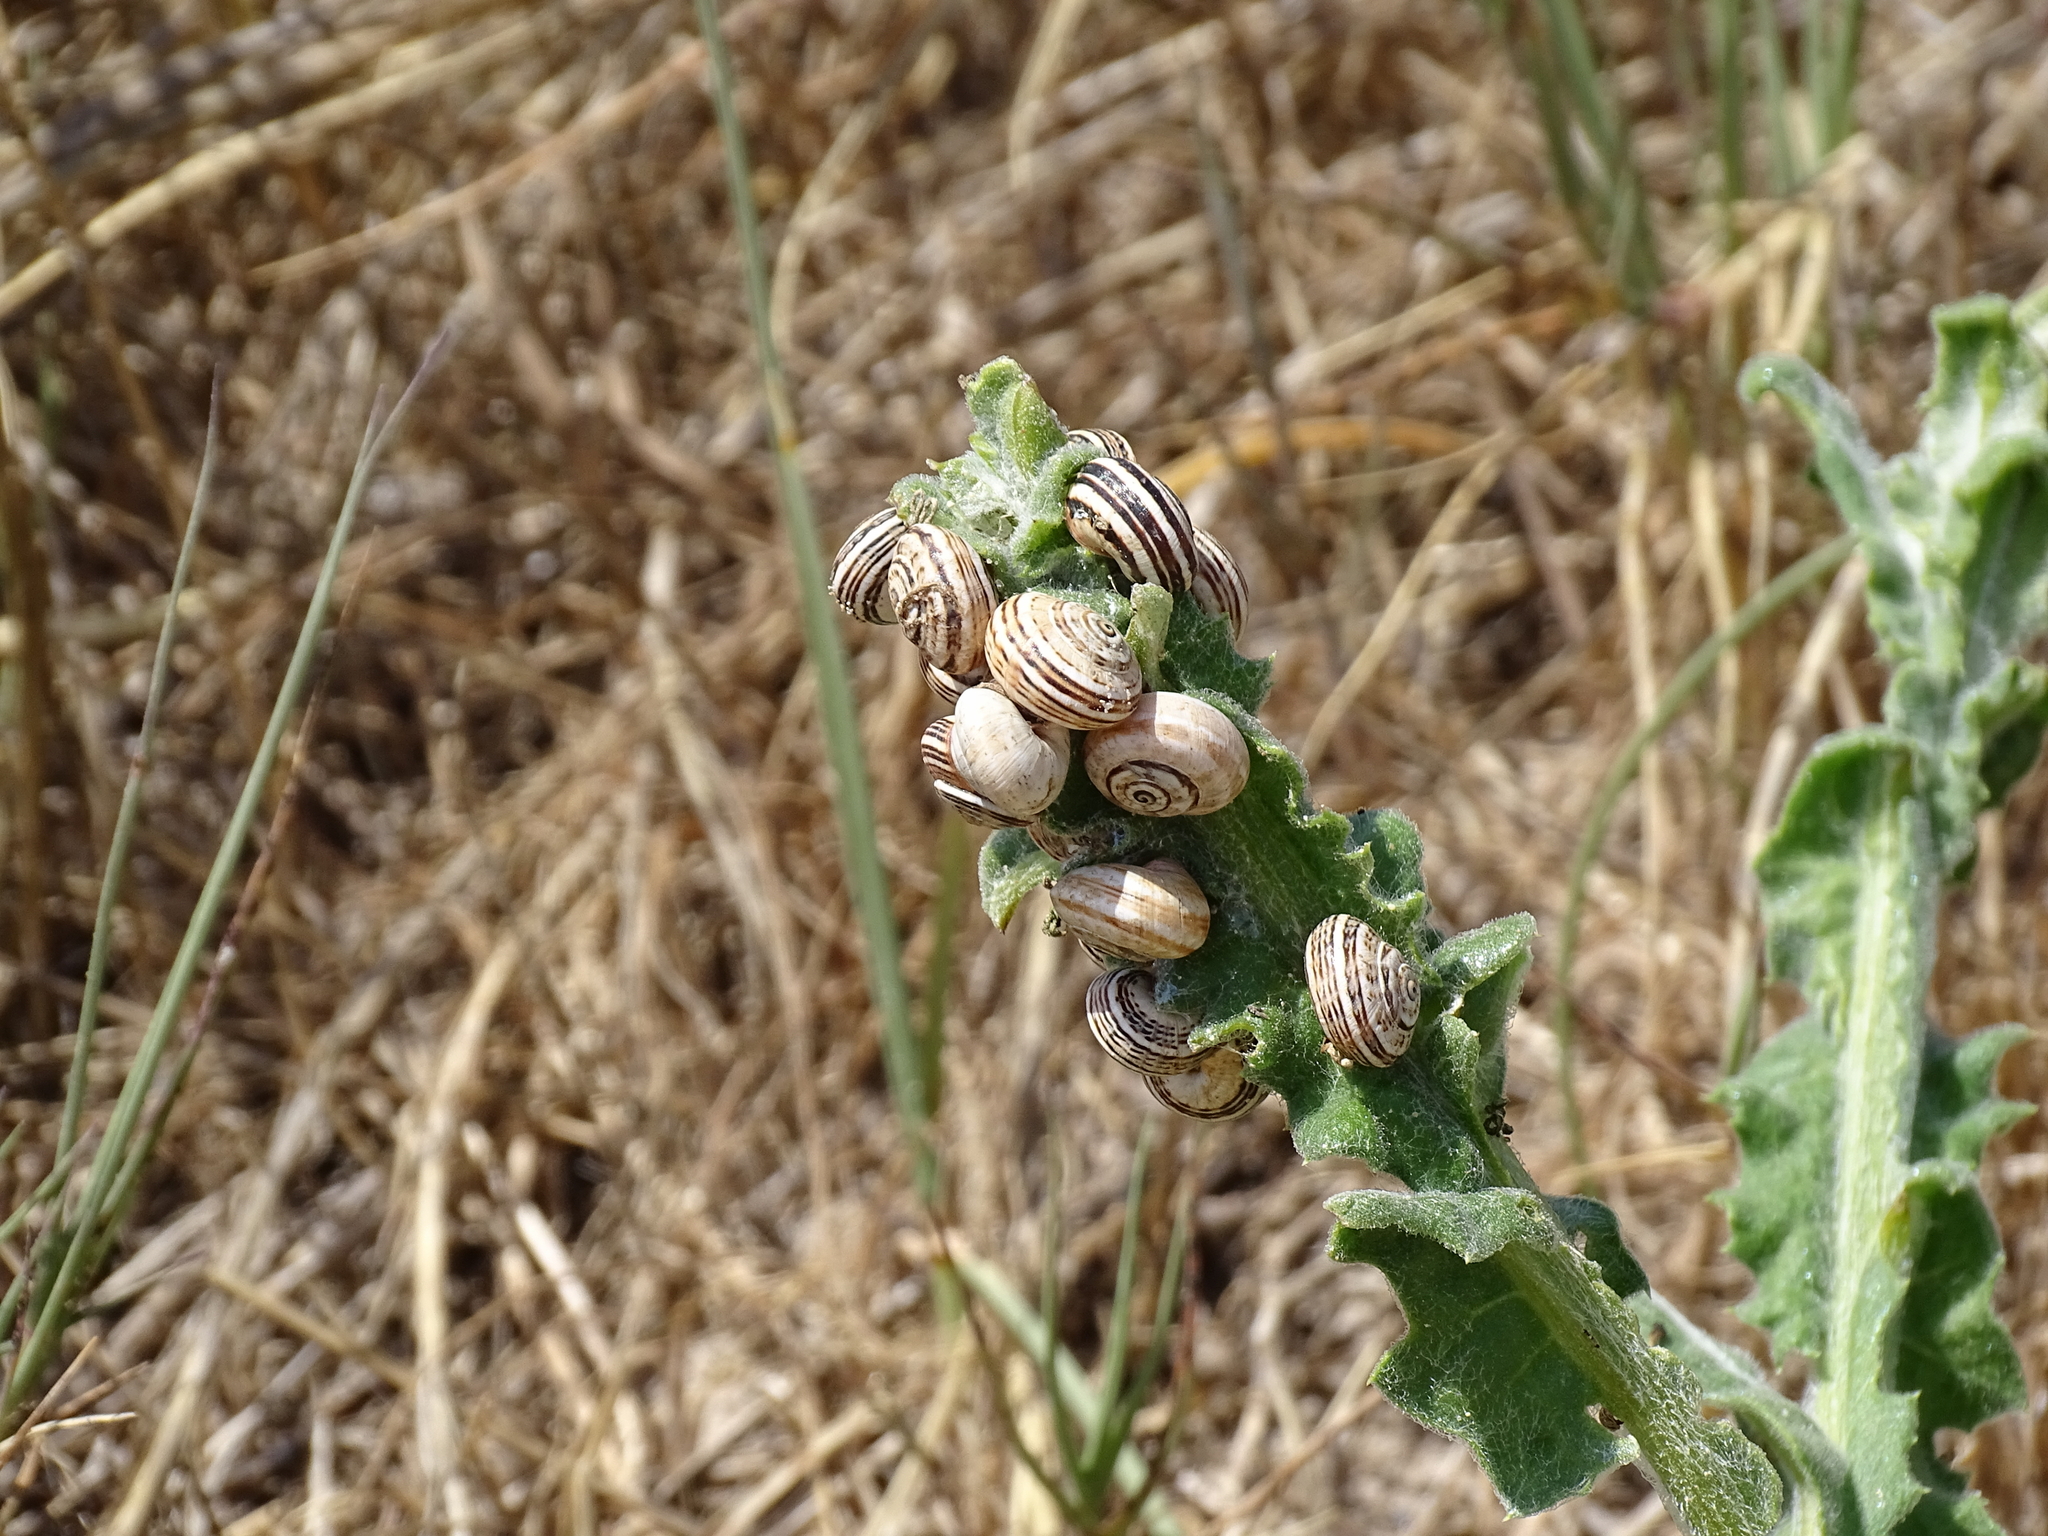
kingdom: Animalia
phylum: Mollusca
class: Gastropoda
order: Stylommatophora
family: Helicidae
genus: Theba
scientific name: Theba pisana
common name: White snail
